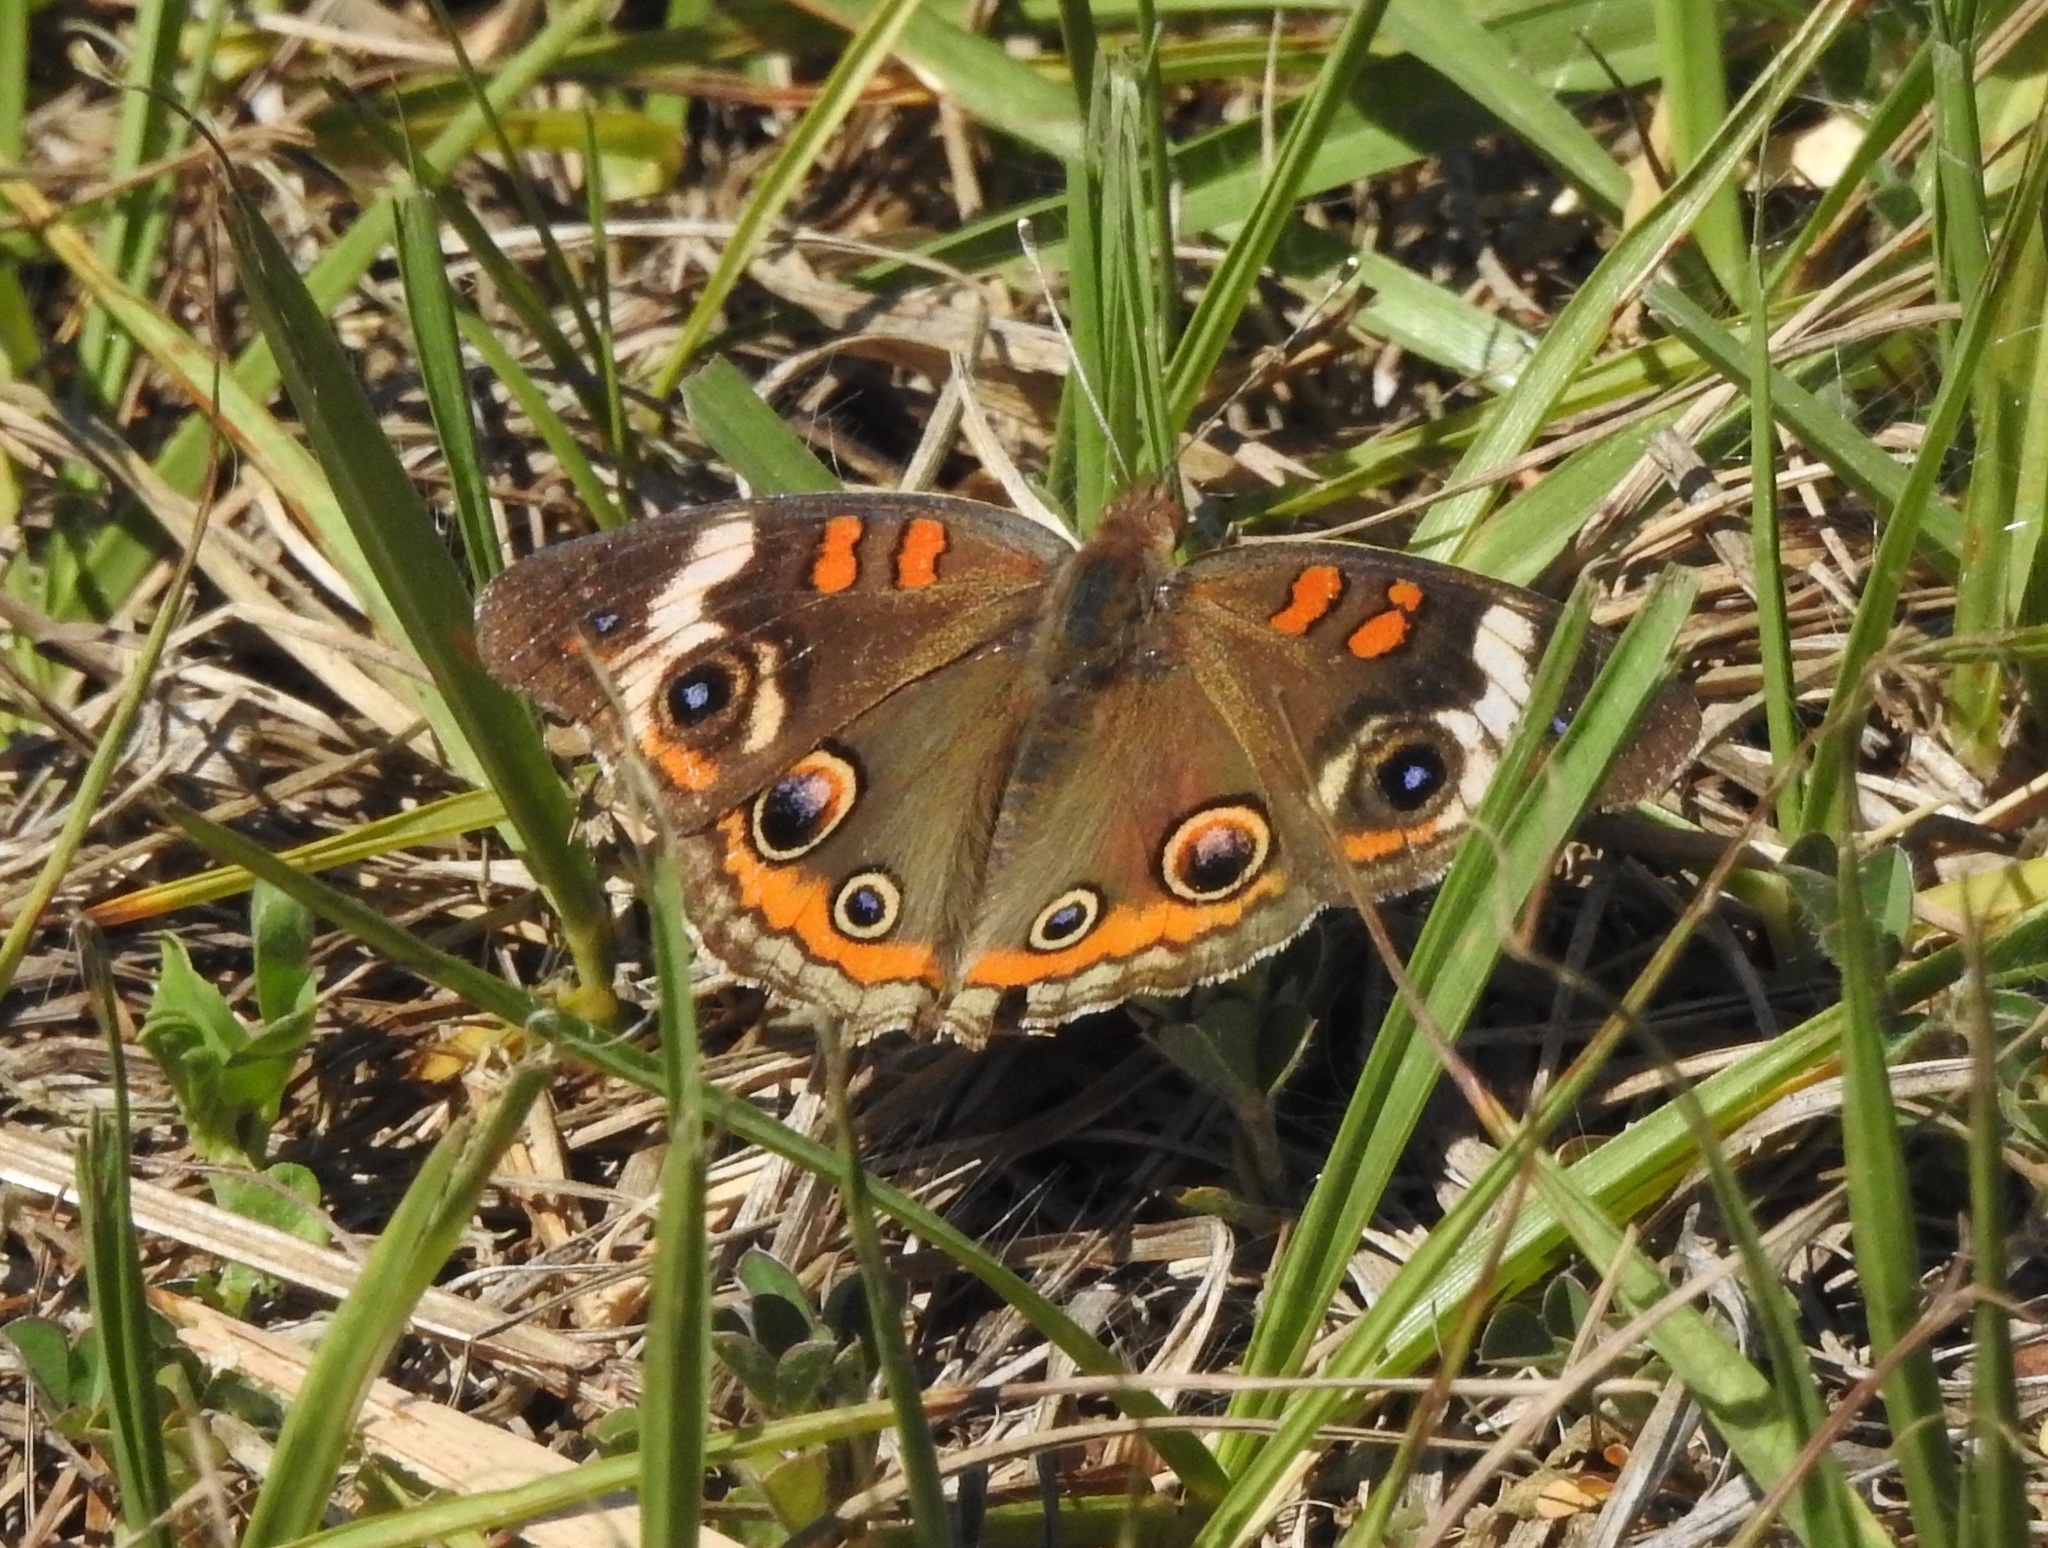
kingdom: Animalia
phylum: Arthropoda
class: Insecta
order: Lepidoptera
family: Nymphalidae
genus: Junonia
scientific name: Junonia coenia
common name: Common buckeye
